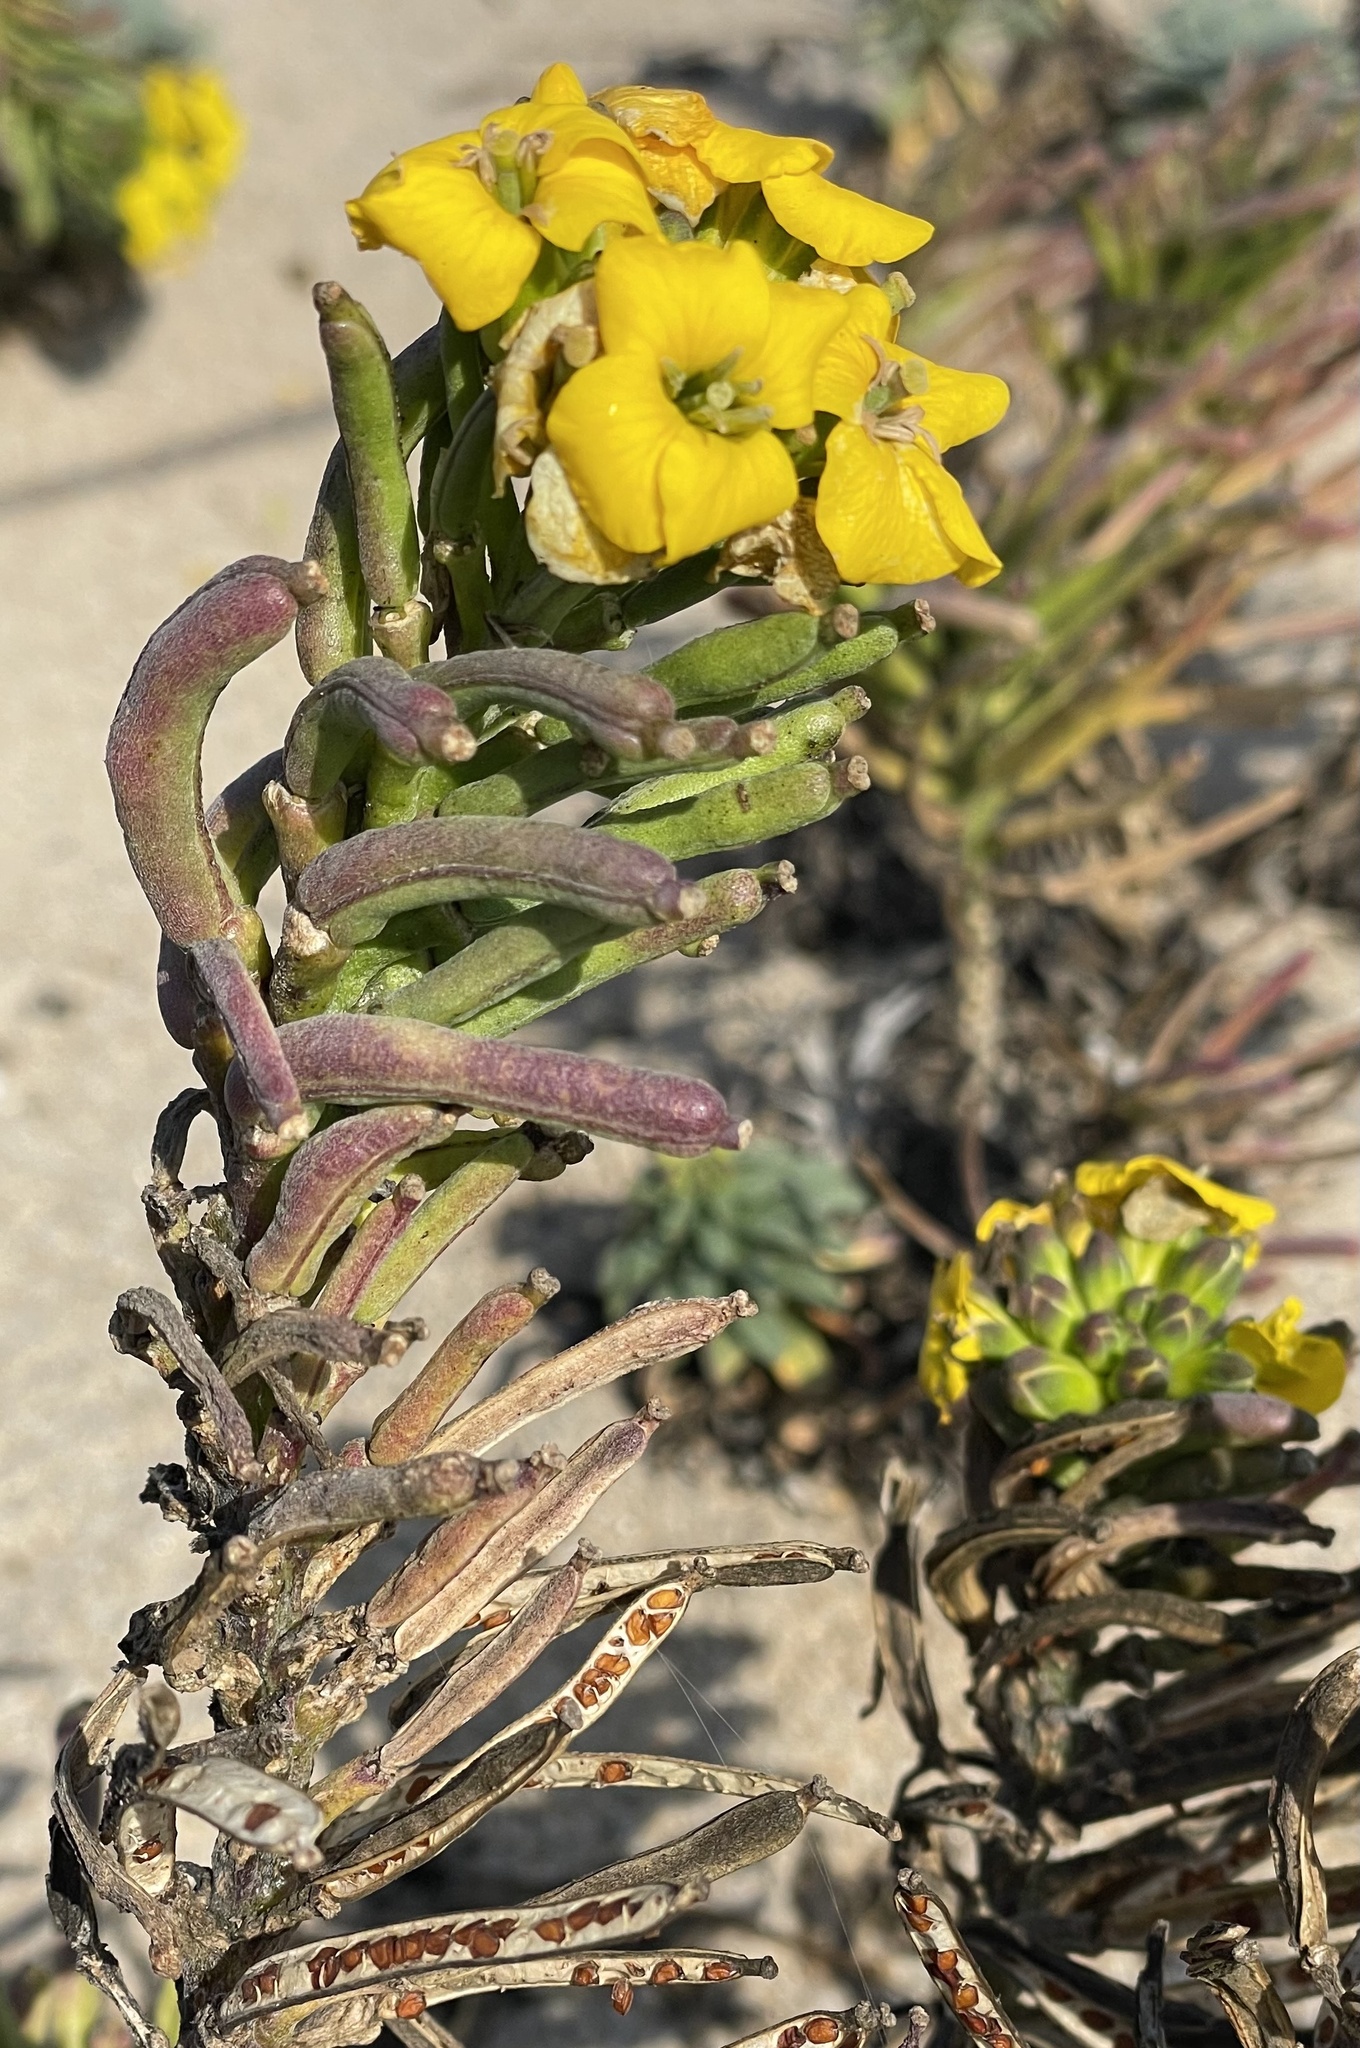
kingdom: Plantae
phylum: Tracheophyta
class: Magnoliopsida
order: Brassicales
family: Brassicaceae
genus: Erysimum
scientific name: Erysimum menziesii
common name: Menzies's wallflower
